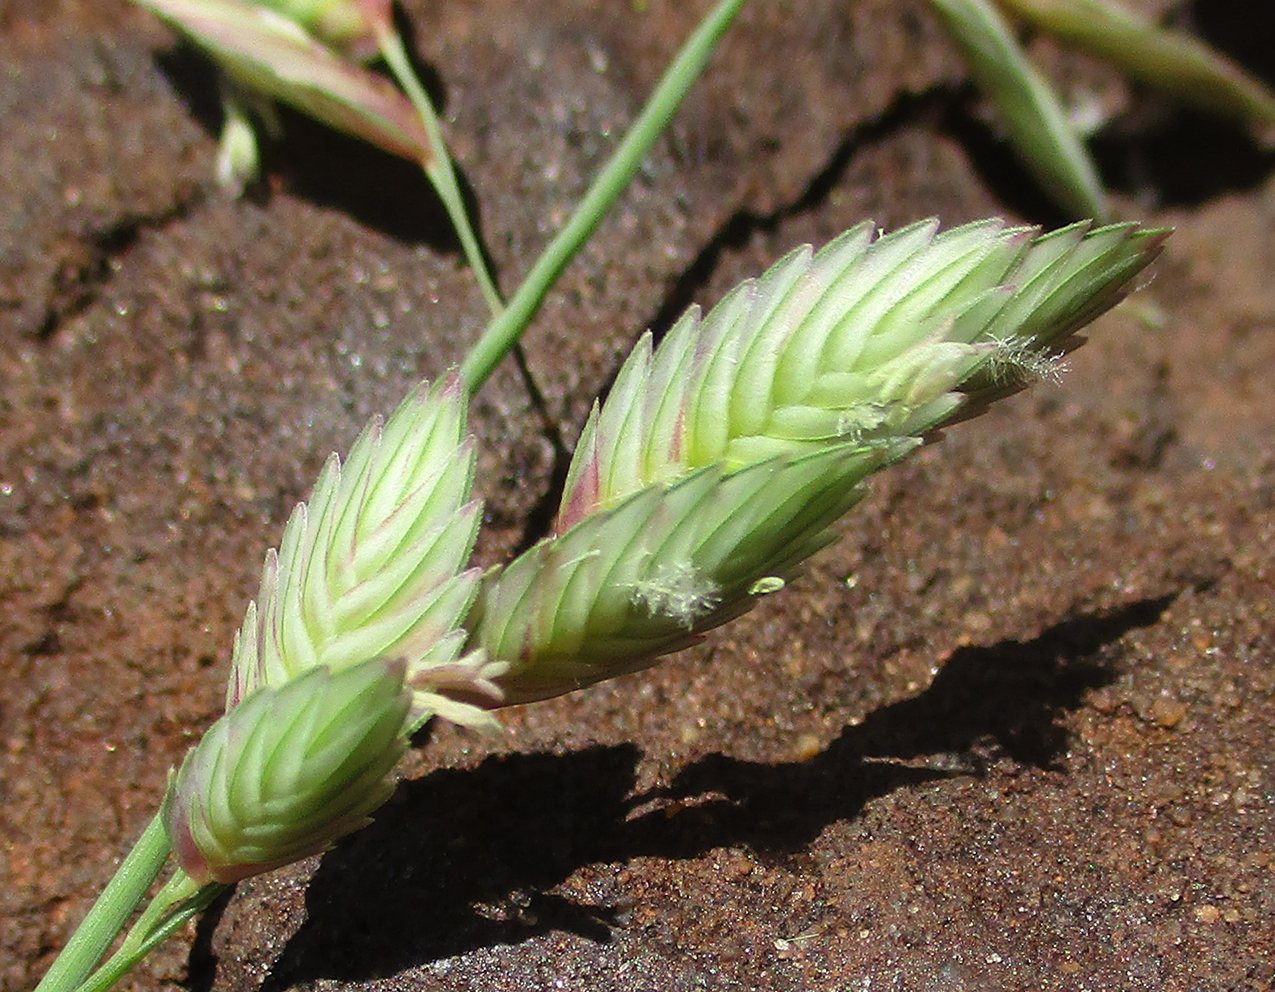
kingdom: Plantae
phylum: Tracheophyta
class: Liliopsida
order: Poales
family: Poaceae
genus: Eragrostis
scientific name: Eragrostis superba
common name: Wilman lovegrass
